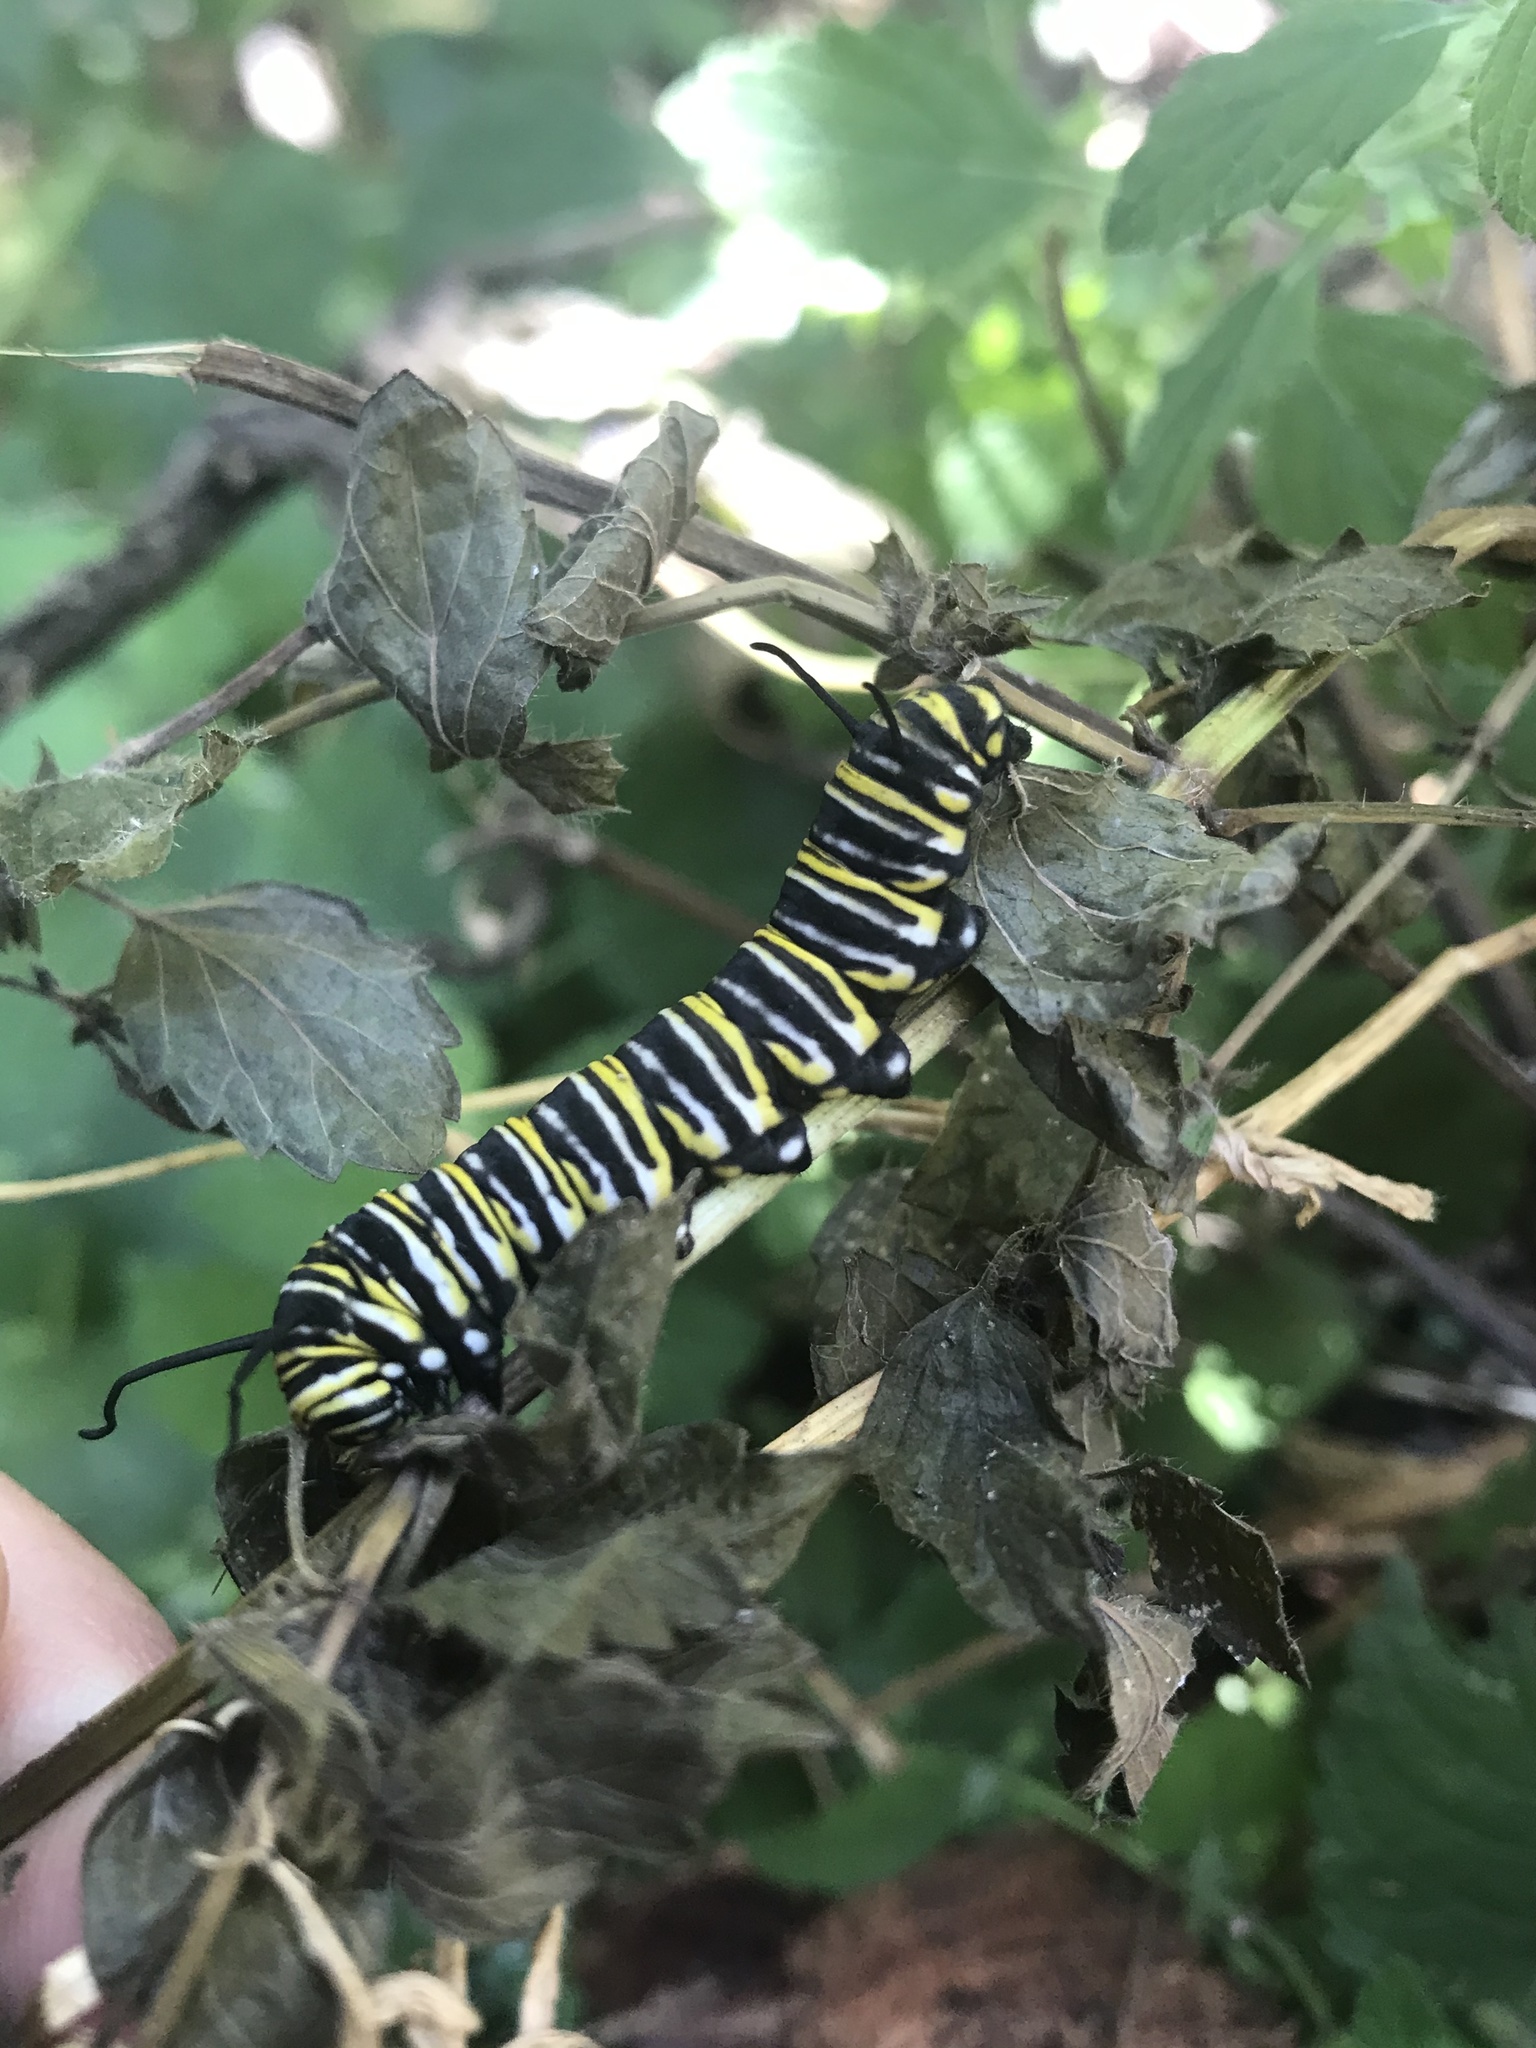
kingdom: Animalia
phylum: Arthropoda
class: Insecta
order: Lepidoptera
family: Nymphalidae
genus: Danaus
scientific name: Danaus plexippus
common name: Monarch
